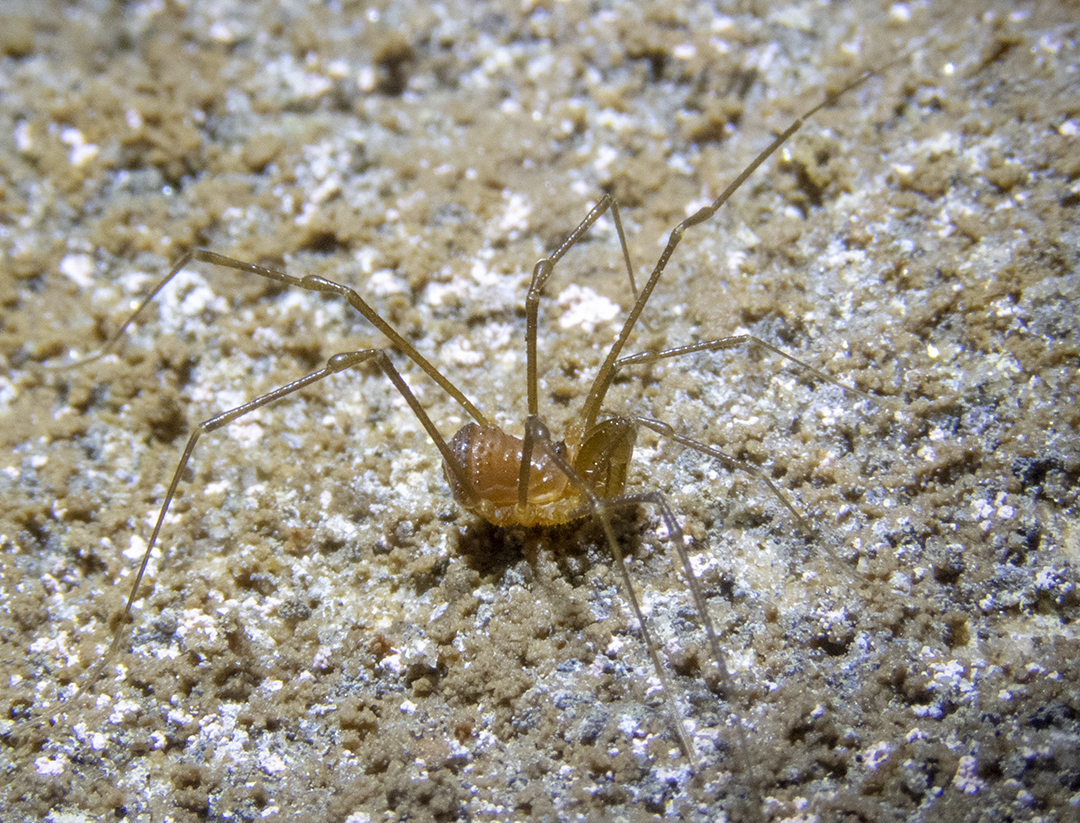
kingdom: Animalia
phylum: Arthropoda
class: Arachnida
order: Opiliones
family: Triaenonychidae
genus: Hendea
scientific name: Hendea myersi
